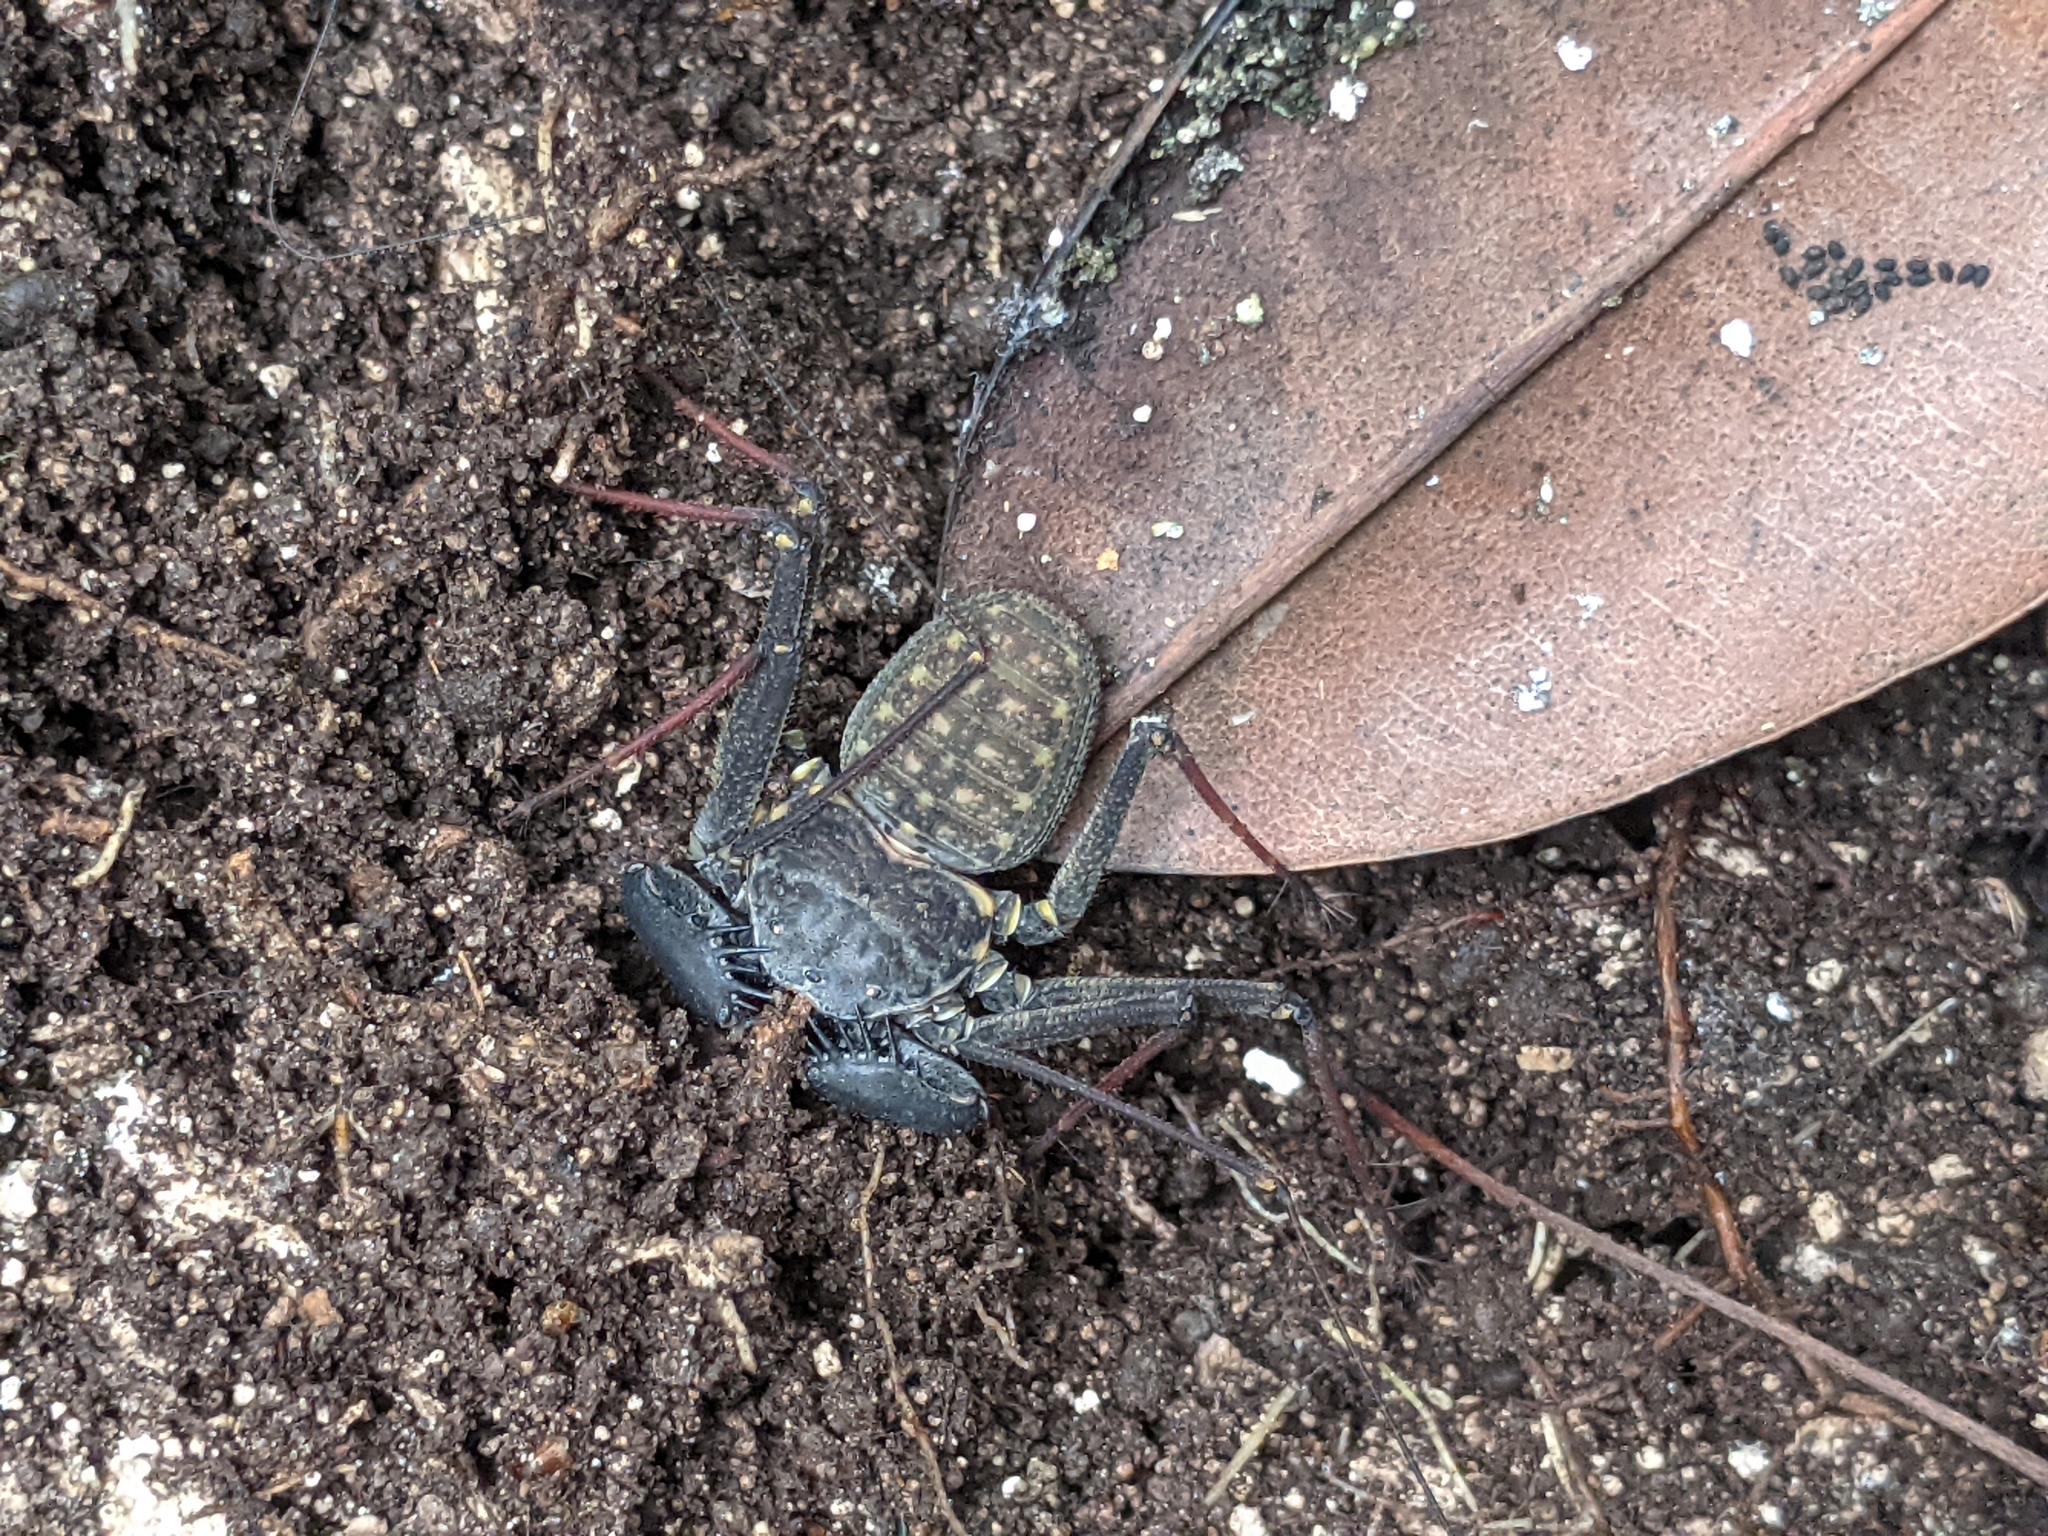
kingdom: Animalia
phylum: Arthropoda
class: Arachnida
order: Amblypygi
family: Phrynidae
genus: Phrynus
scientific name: Phrynus marginemaculatus
